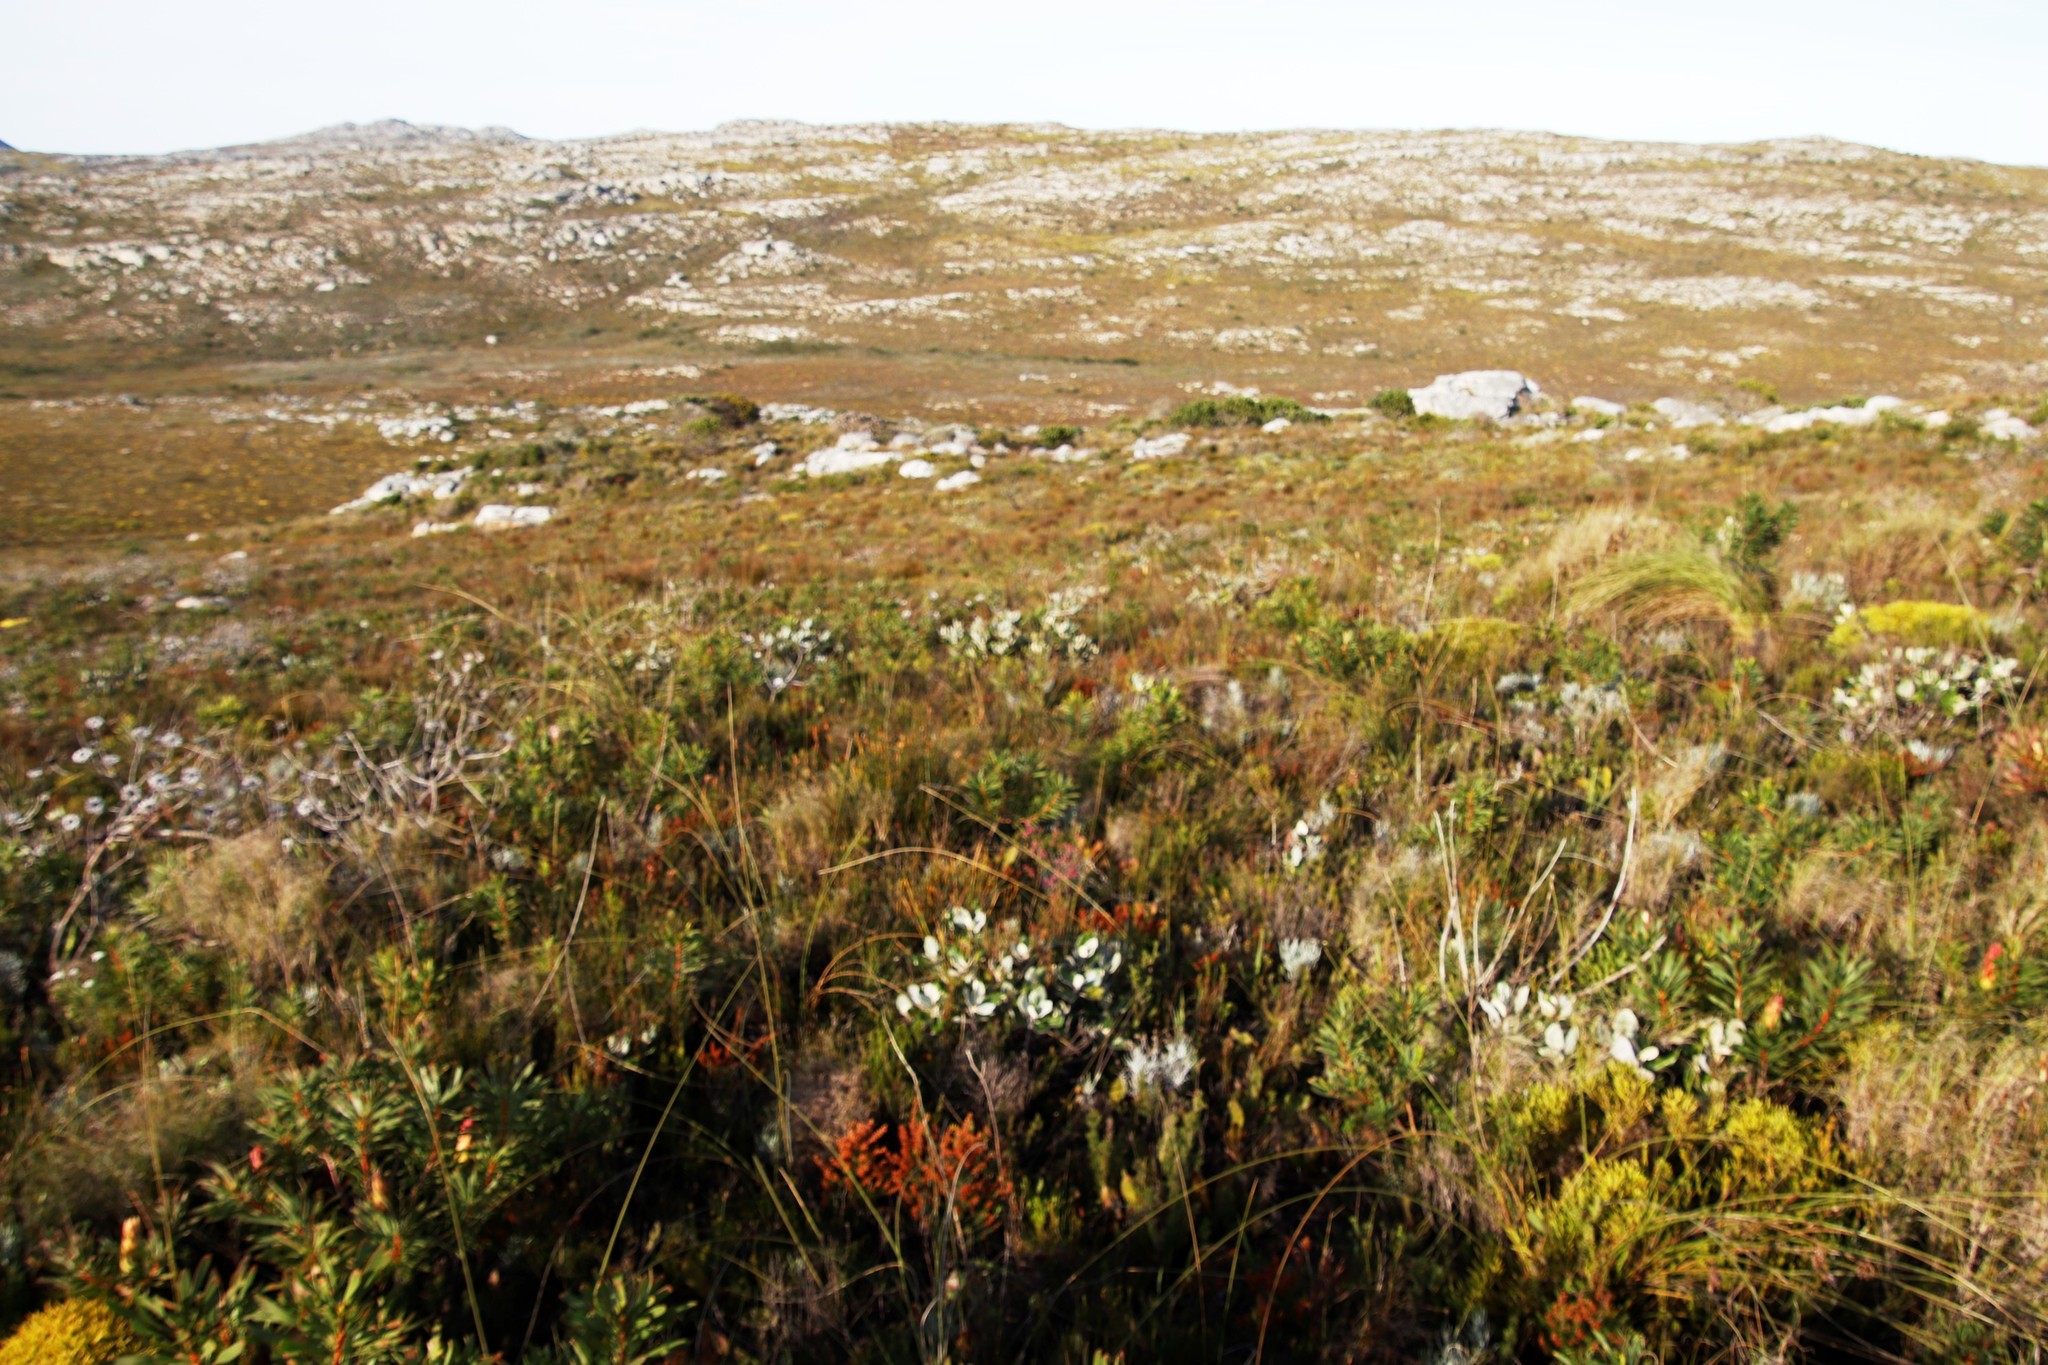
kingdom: Plantae
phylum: Tracheophyta
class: Magnoliopsida
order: Apiales
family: Apiaceae
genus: Hermas
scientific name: Hermas villosa
